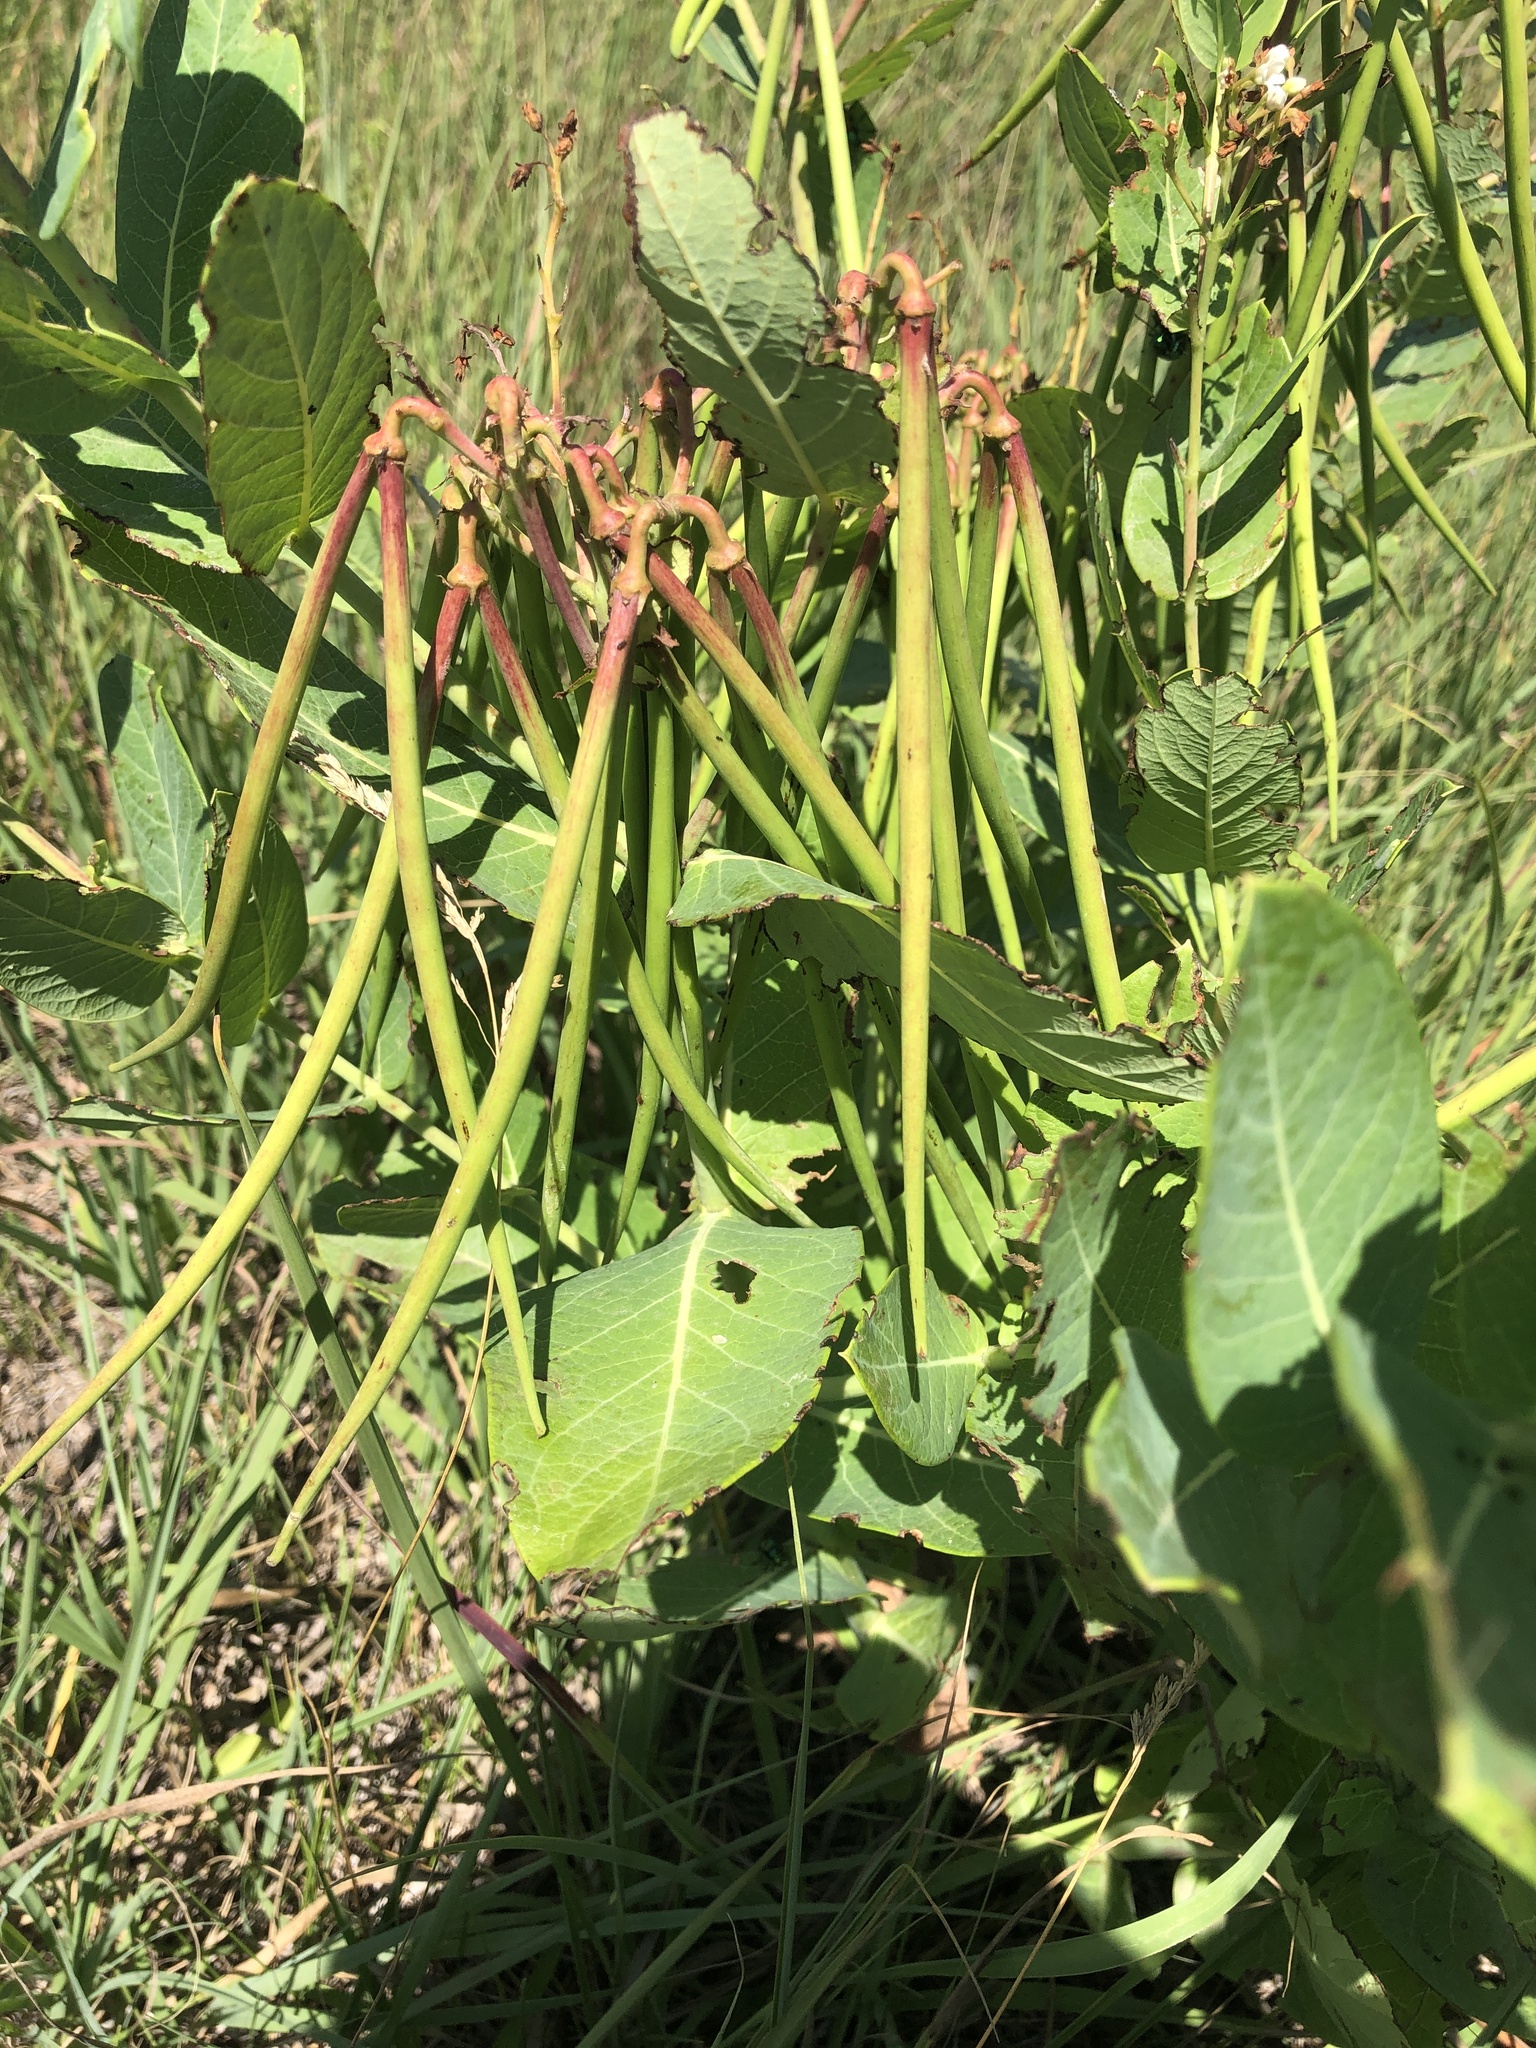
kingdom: Plantae
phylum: Tracheophyta
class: Magnoliopsida
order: Gentianales
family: Apocynaceae
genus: Apocynum
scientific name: Apocynum cannabinum
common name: Hemp dogbane
